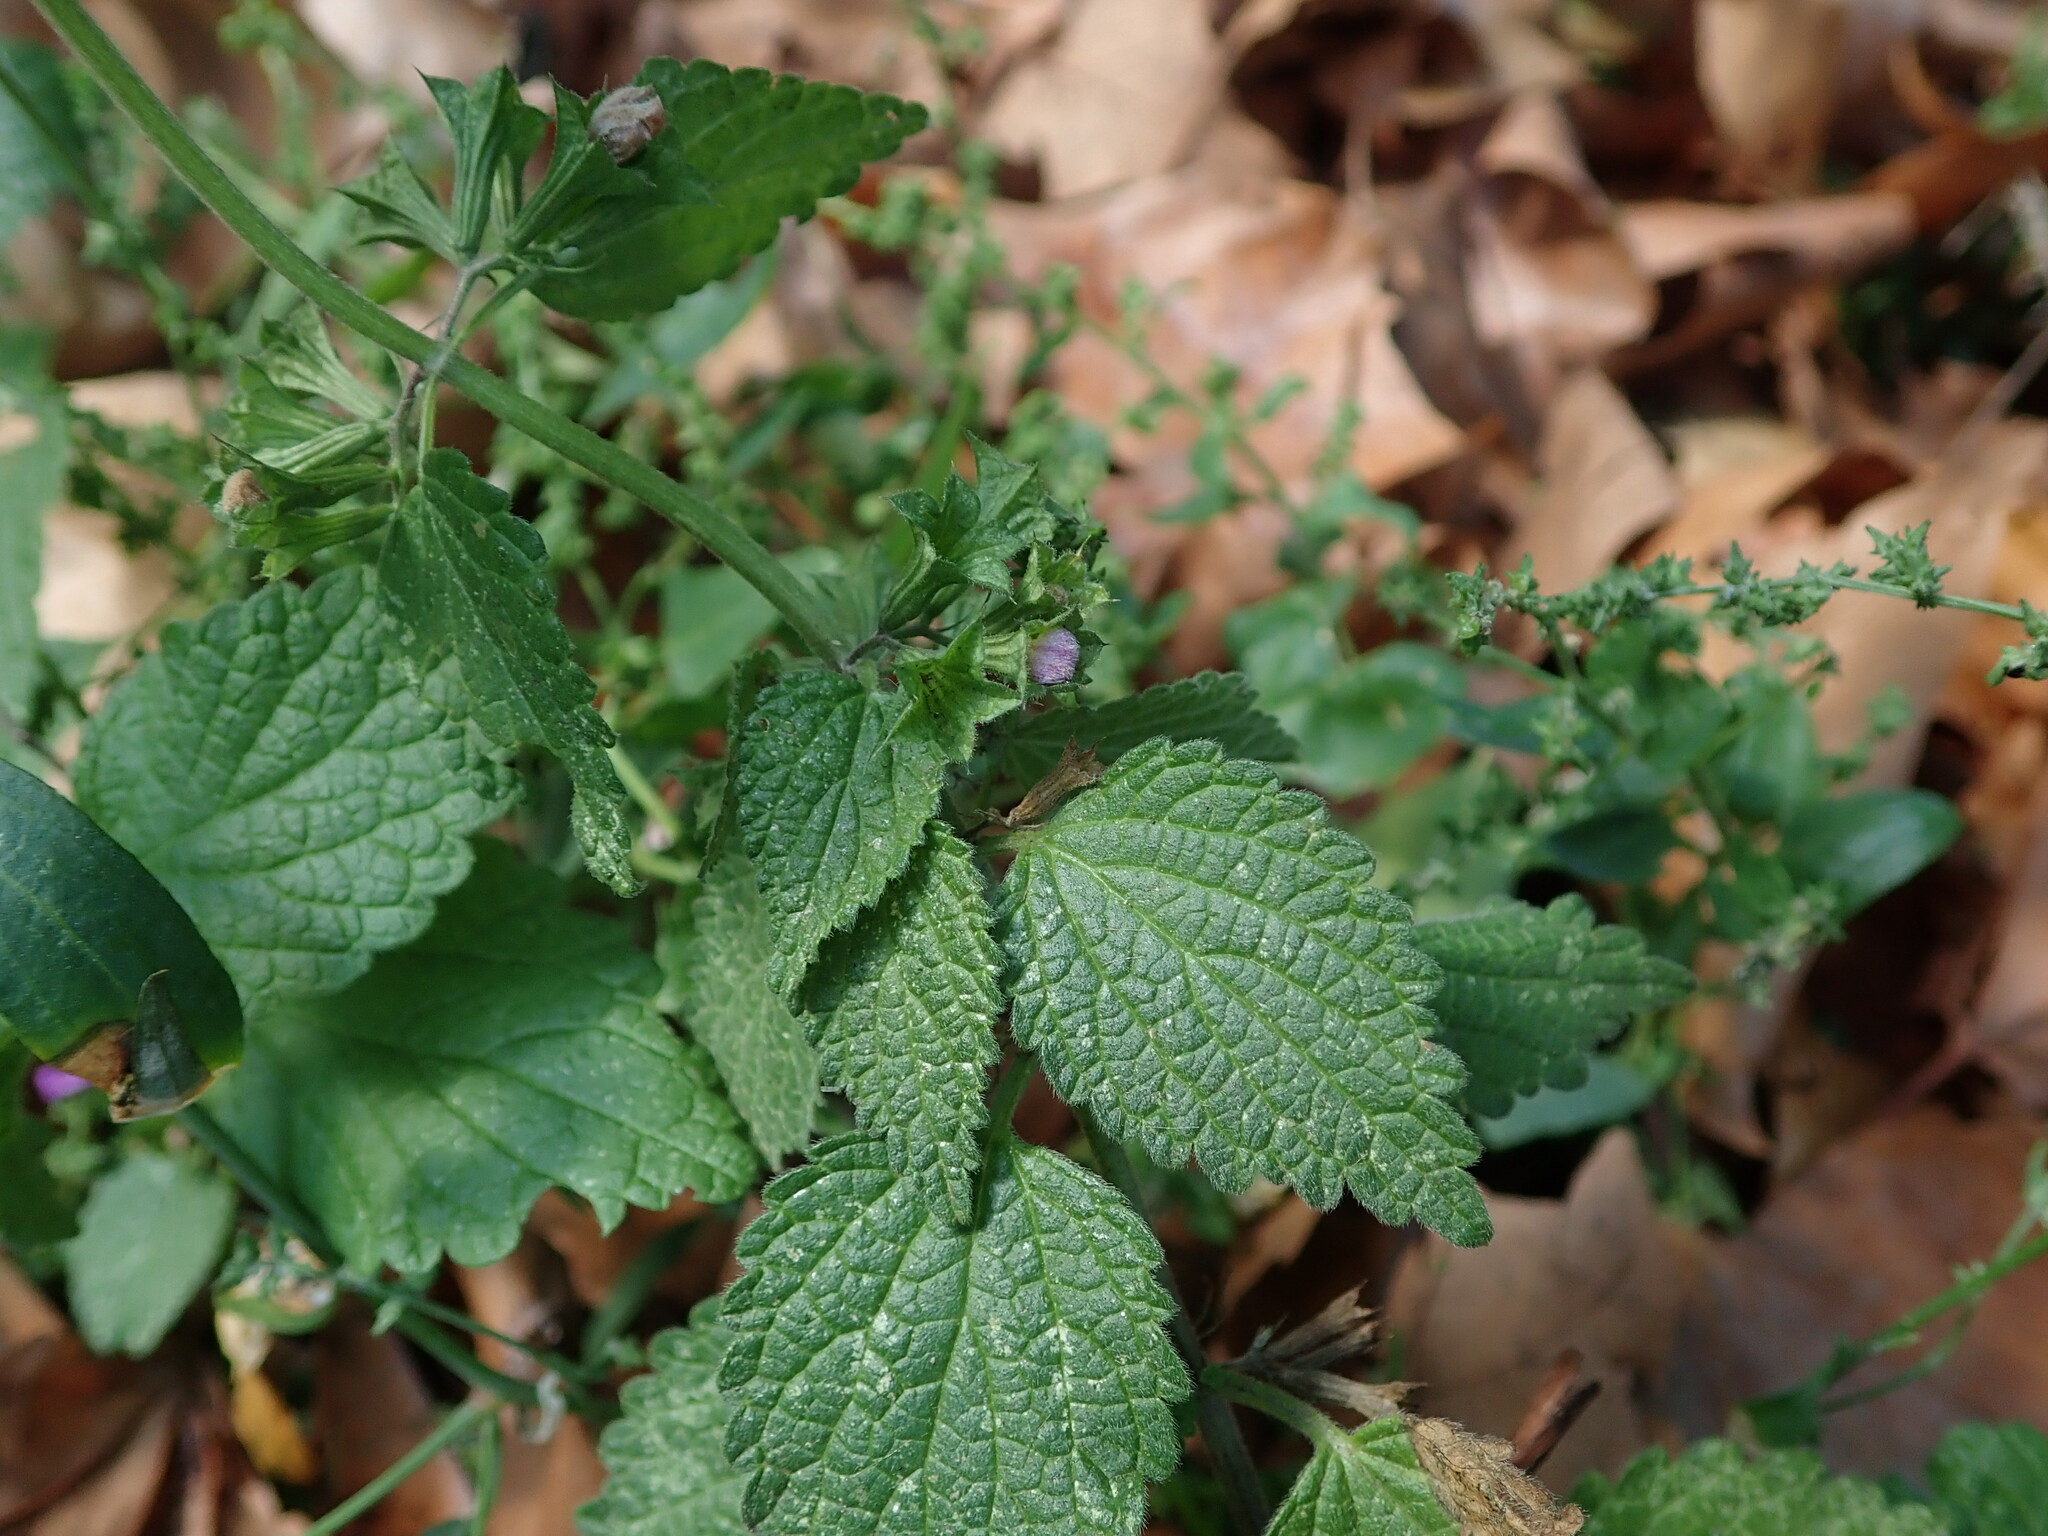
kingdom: Plantae
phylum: Tracheophyta
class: Magnoliopsida
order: Lamiales
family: Lamiaceae
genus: Ballota
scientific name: Ballota nigra
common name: Black horehound
